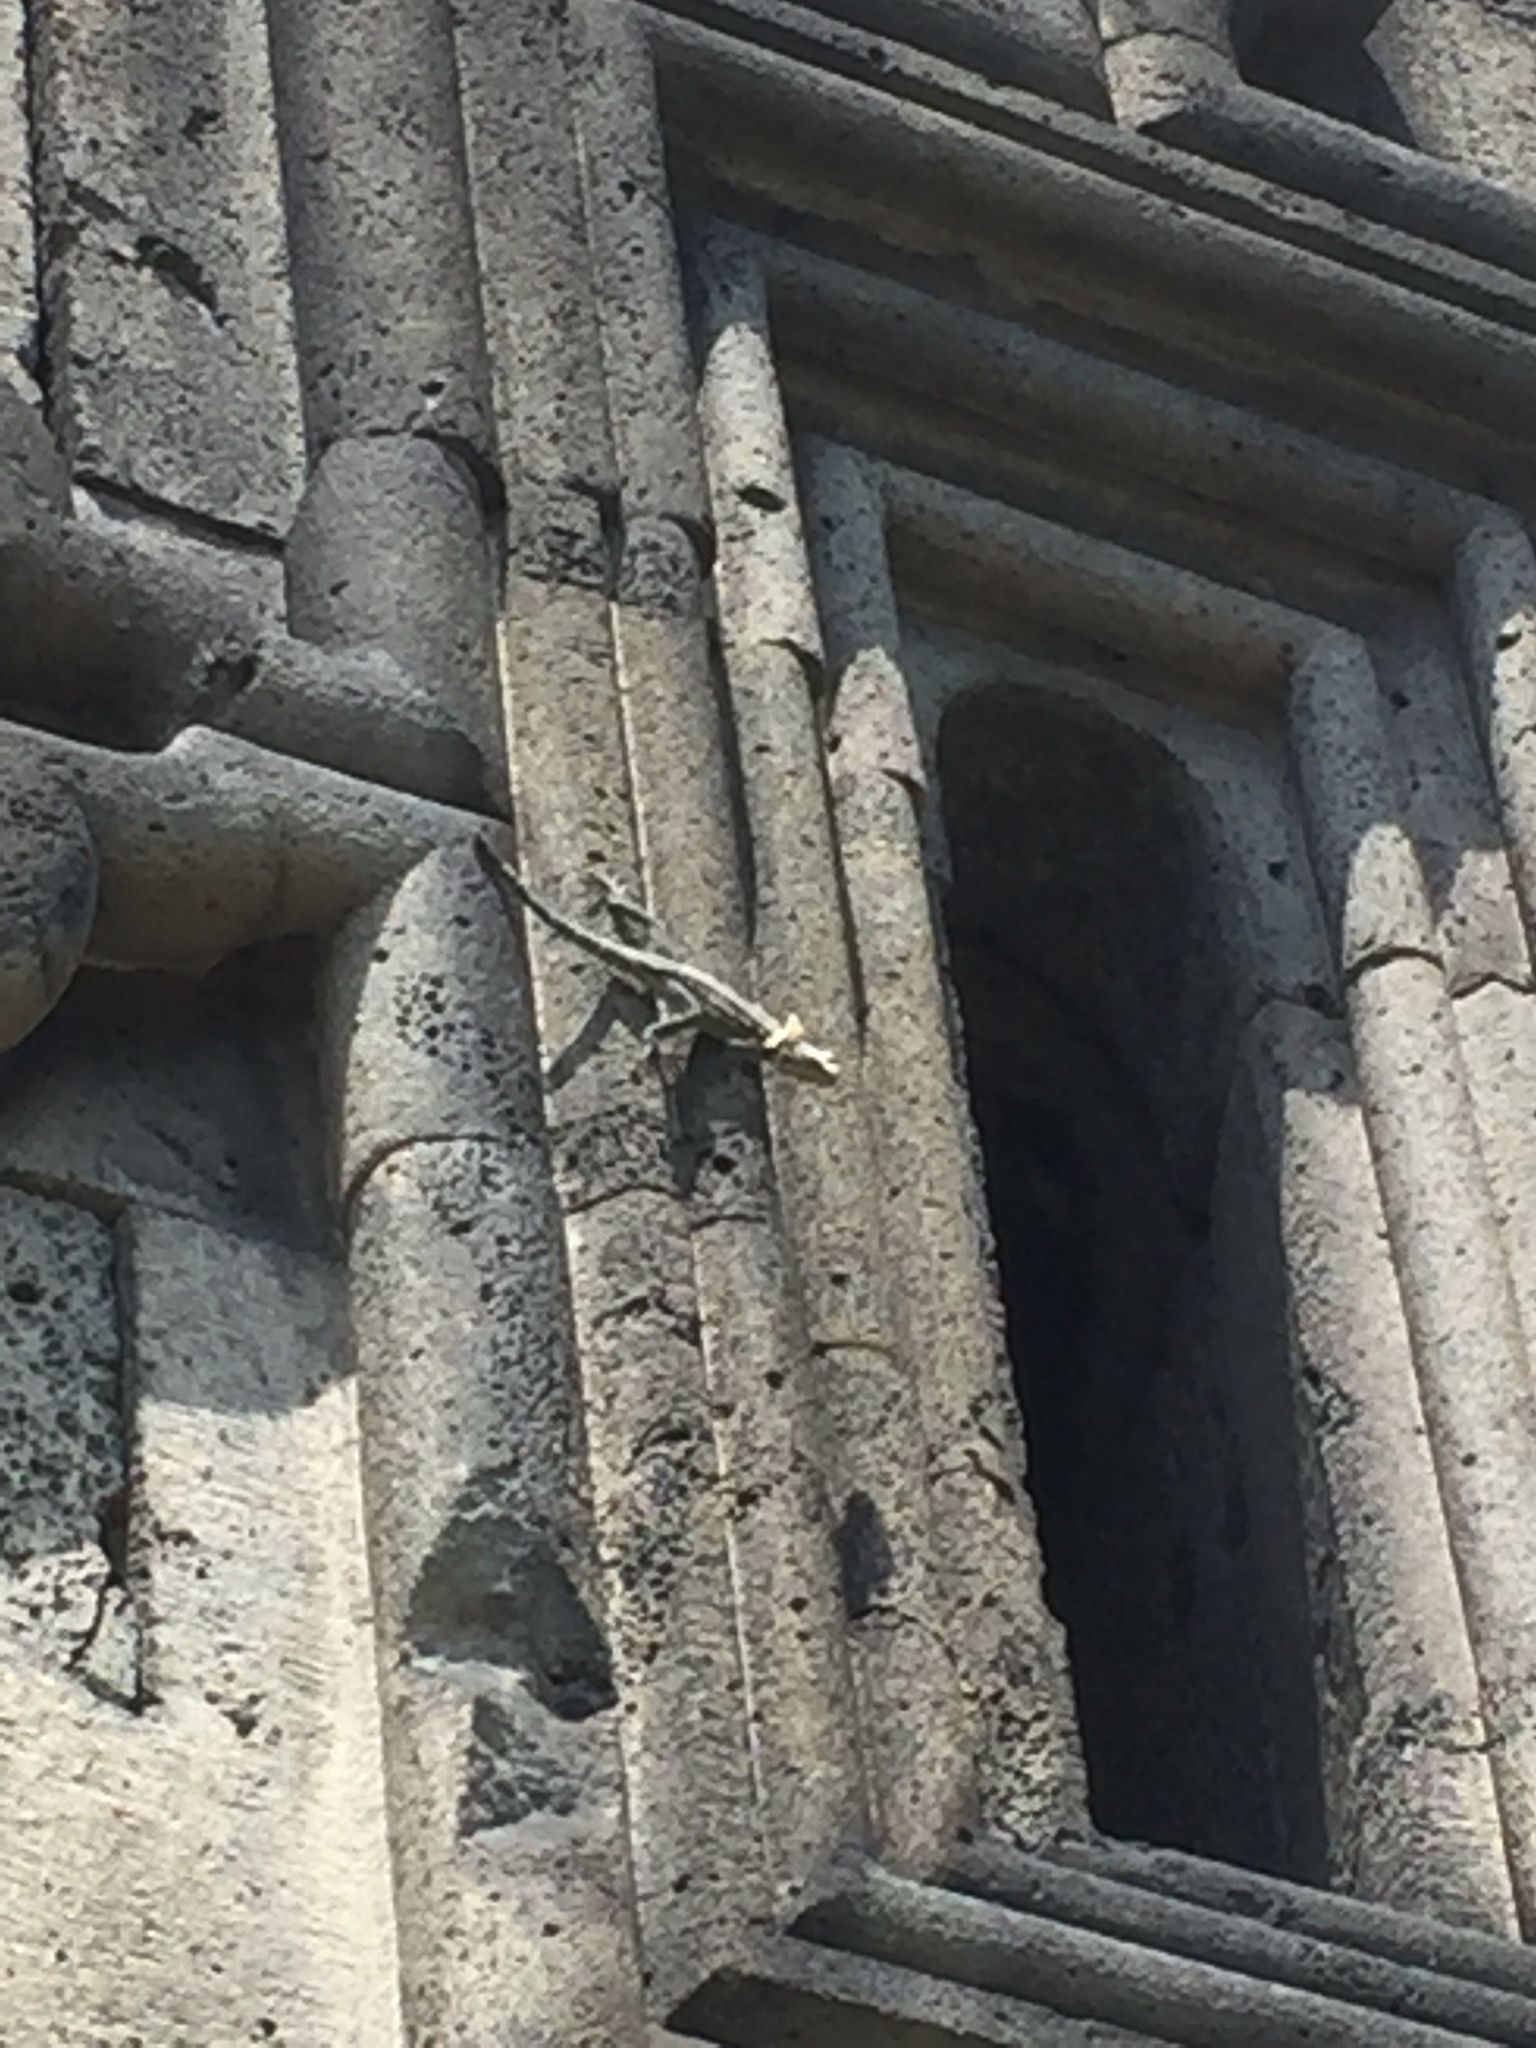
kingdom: Animalia
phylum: Chordata
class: Squamata
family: Agamidae
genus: Paralaudakia
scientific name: Paralaudakia caucasia
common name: Caucasian agama
